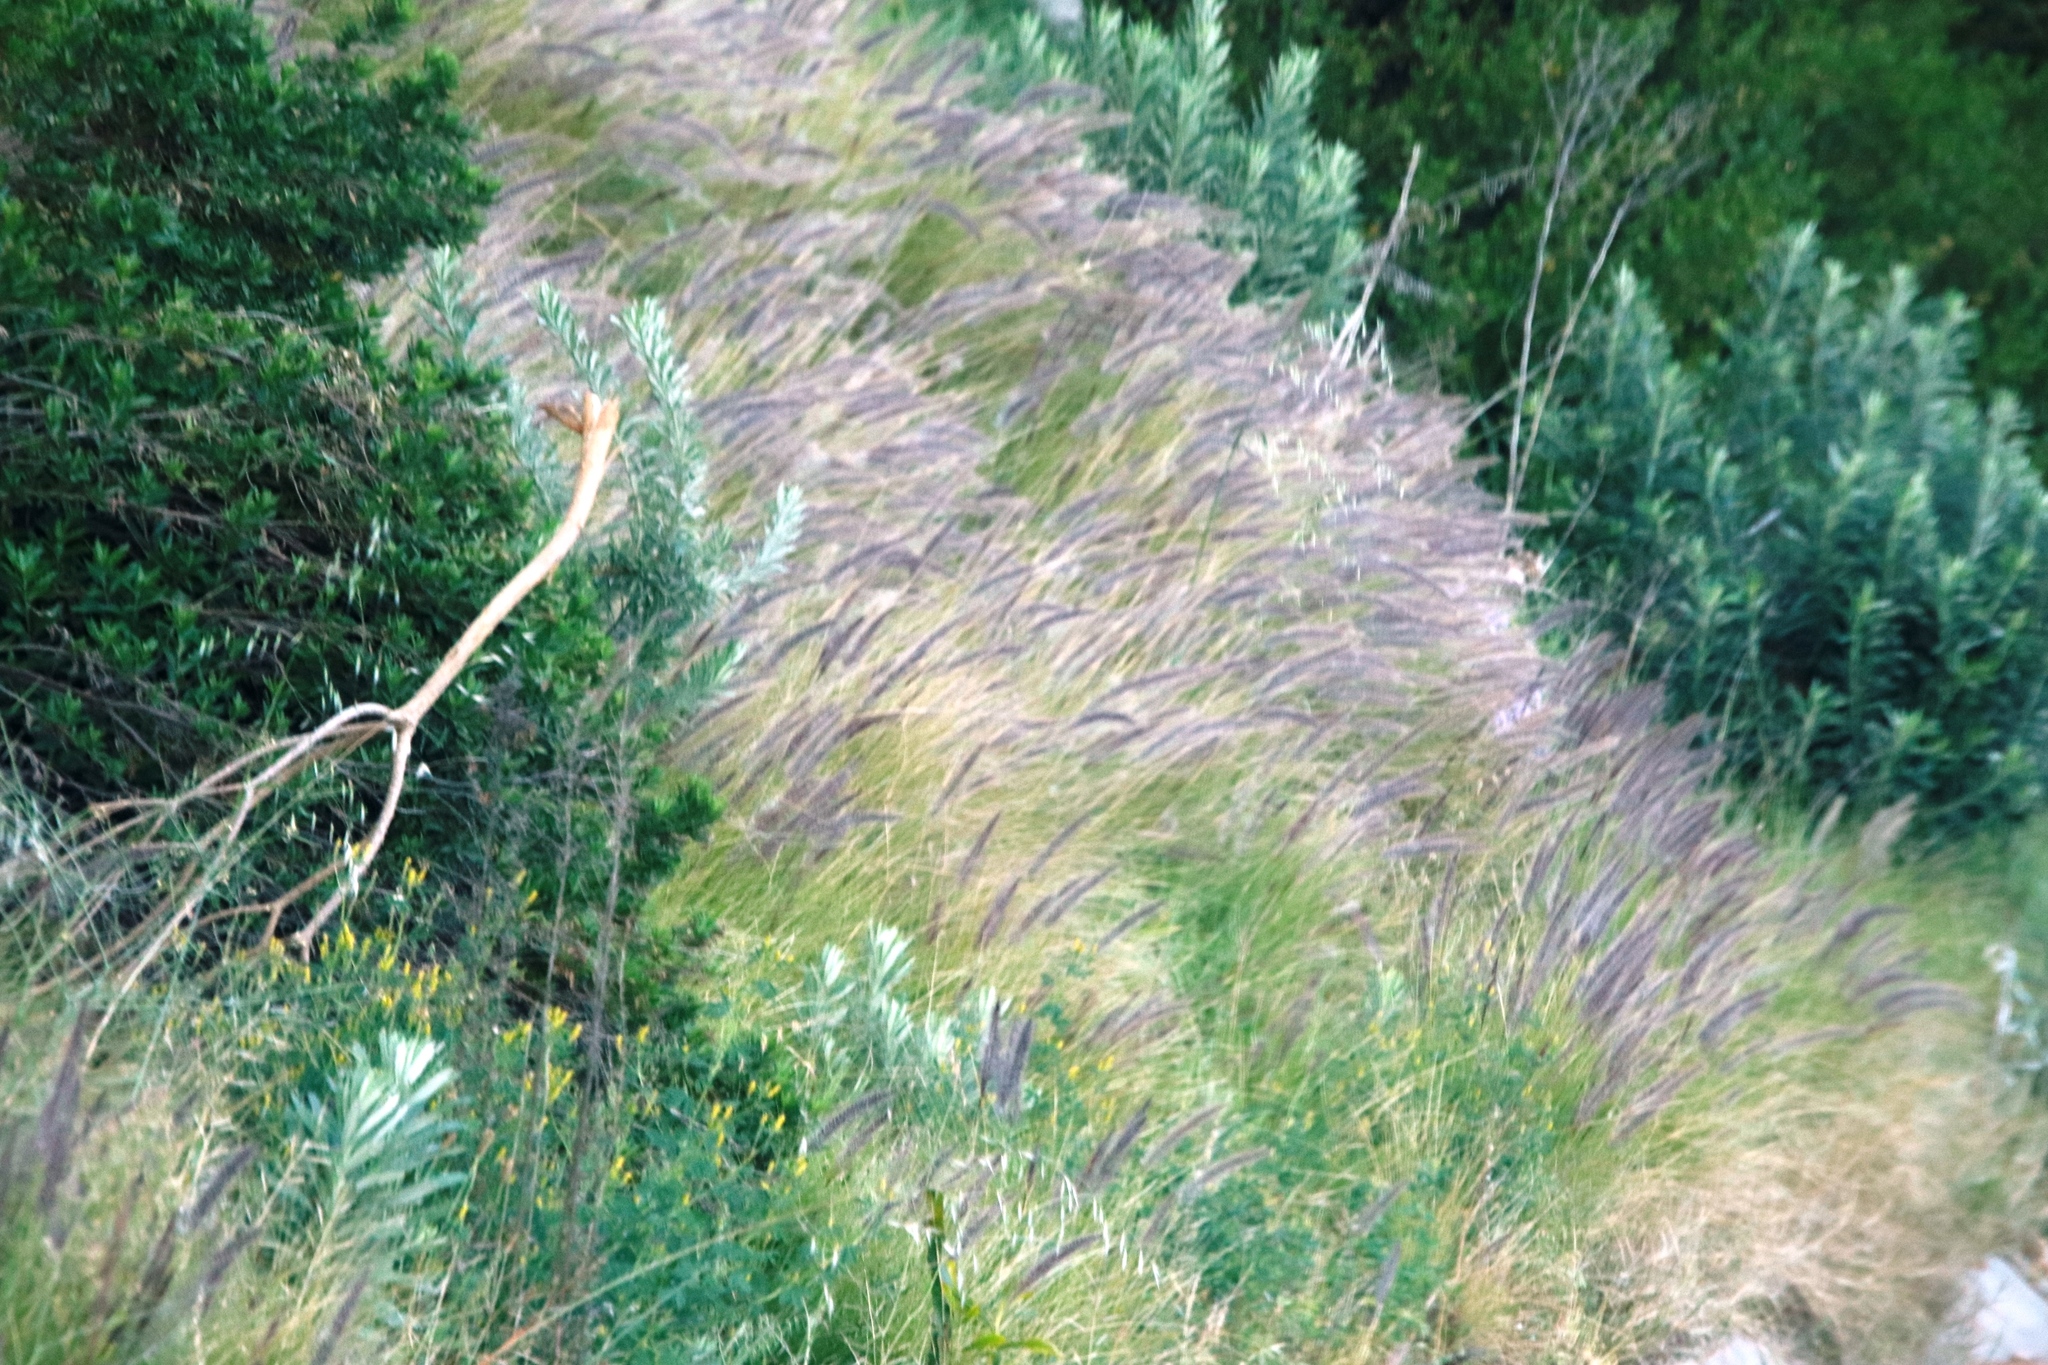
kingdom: Plantae
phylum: Tracheophyta
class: Liliopsida
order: Poales
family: Poaceae
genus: Cenchrus
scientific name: Cenchrus setaceus
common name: Crimson fountaingrass
